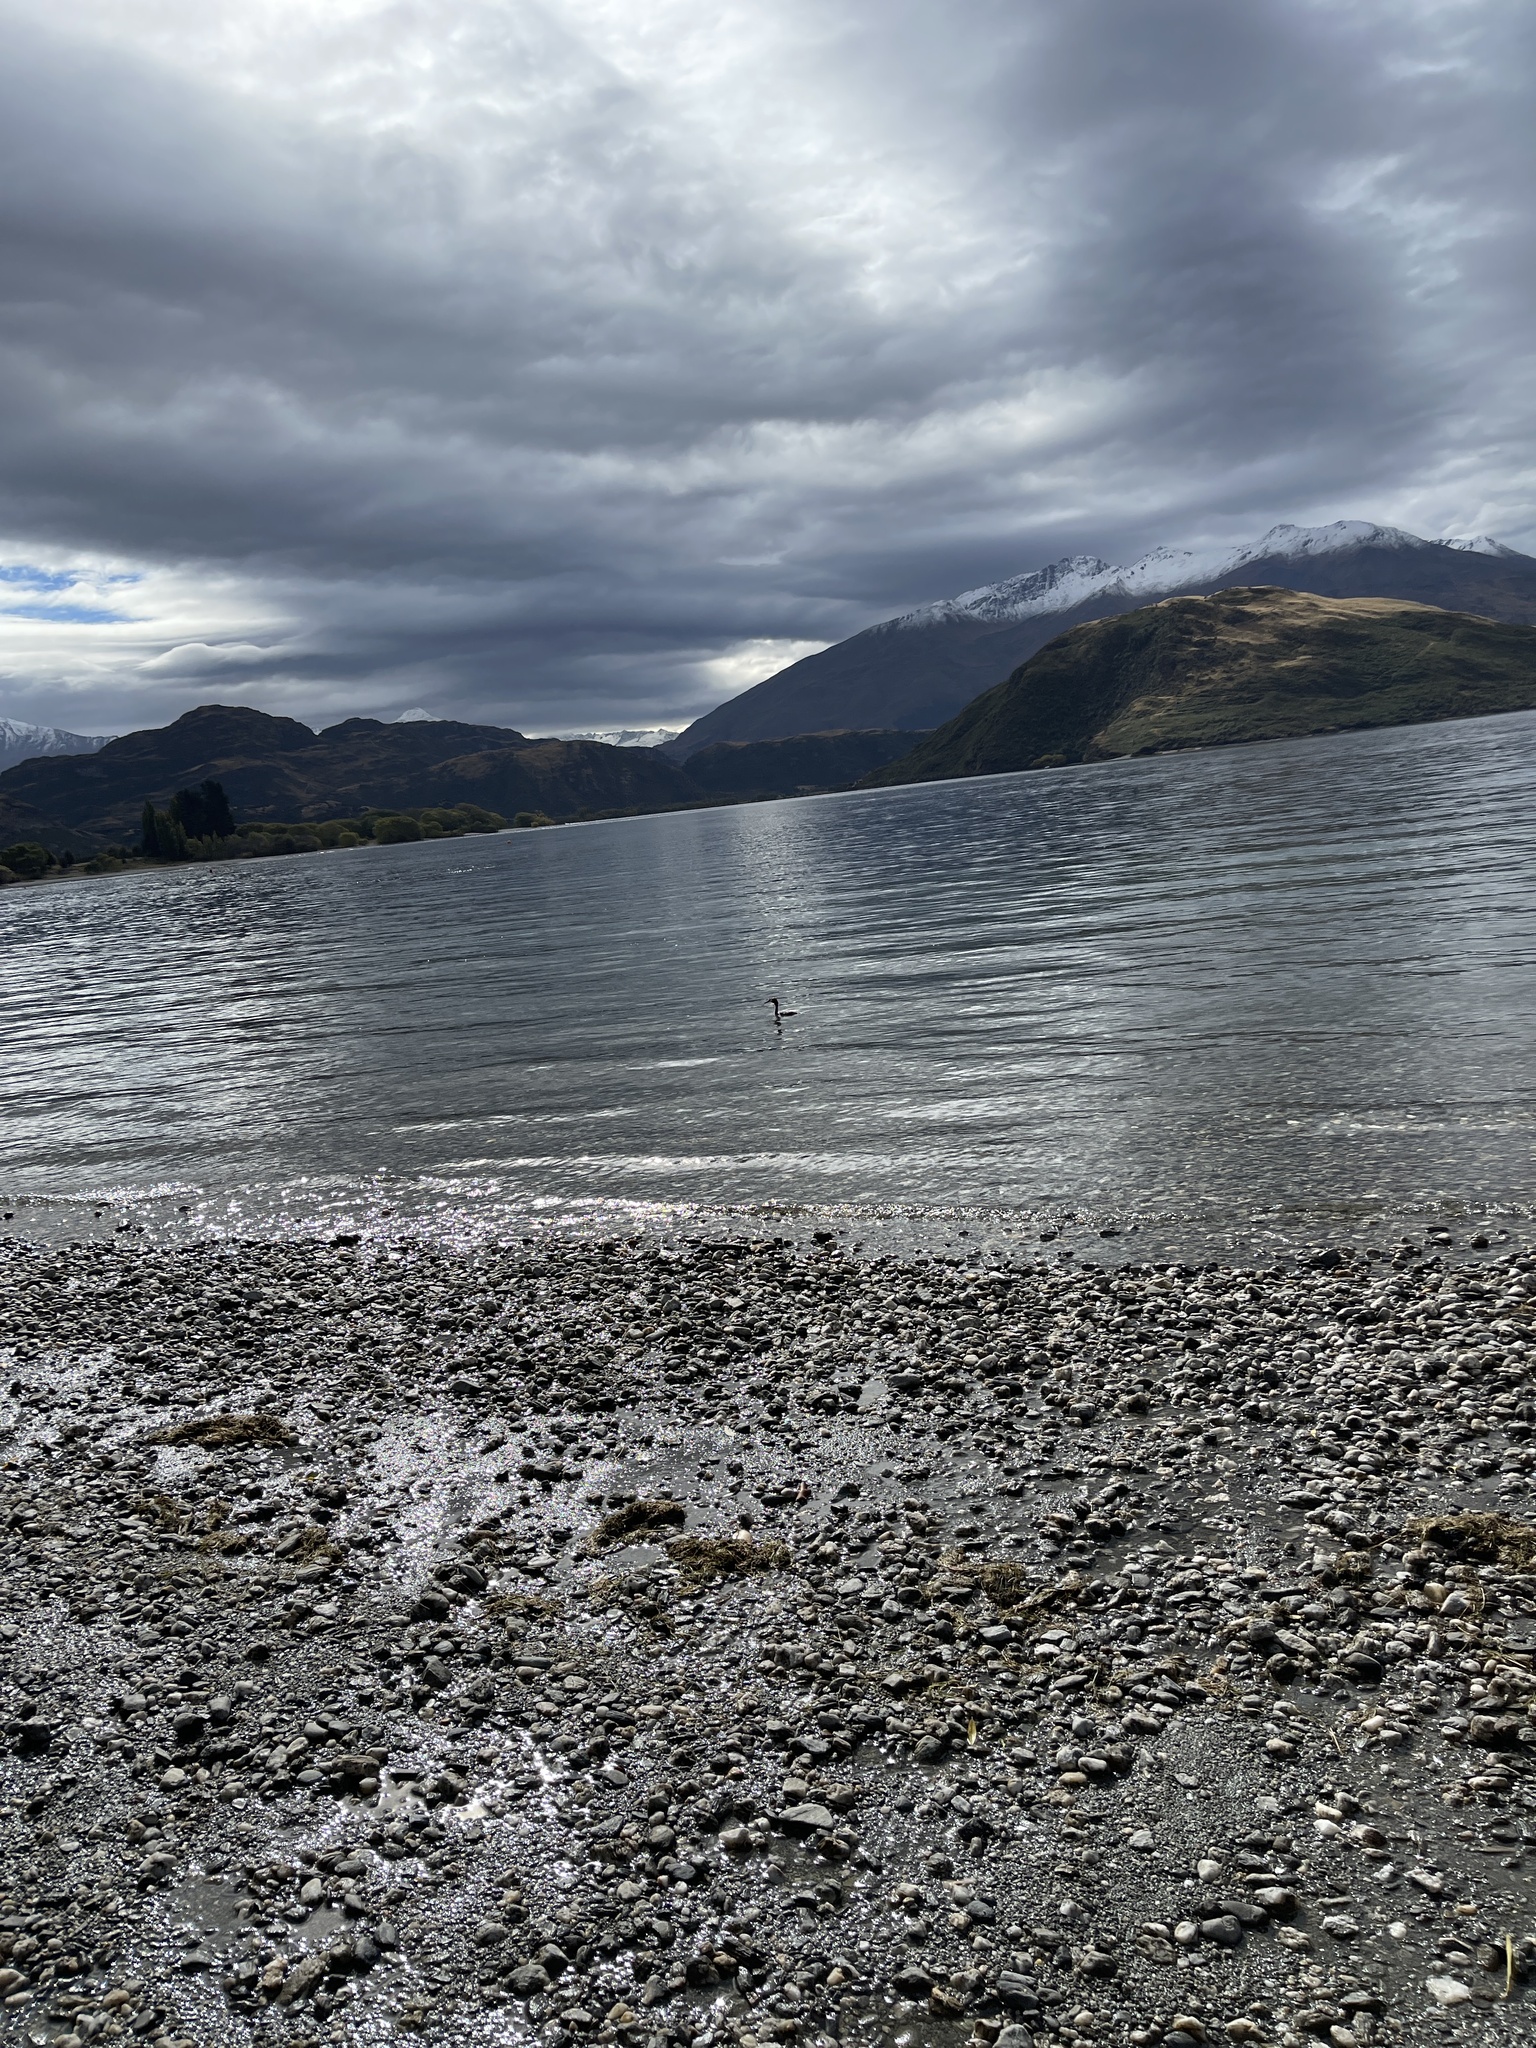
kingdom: Animalia
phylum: Chordata
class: Aves
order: Podicipediformes
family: Podicipedidae
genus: Podiceps
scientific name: Podiceps cristatus
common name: Great crested grebe
